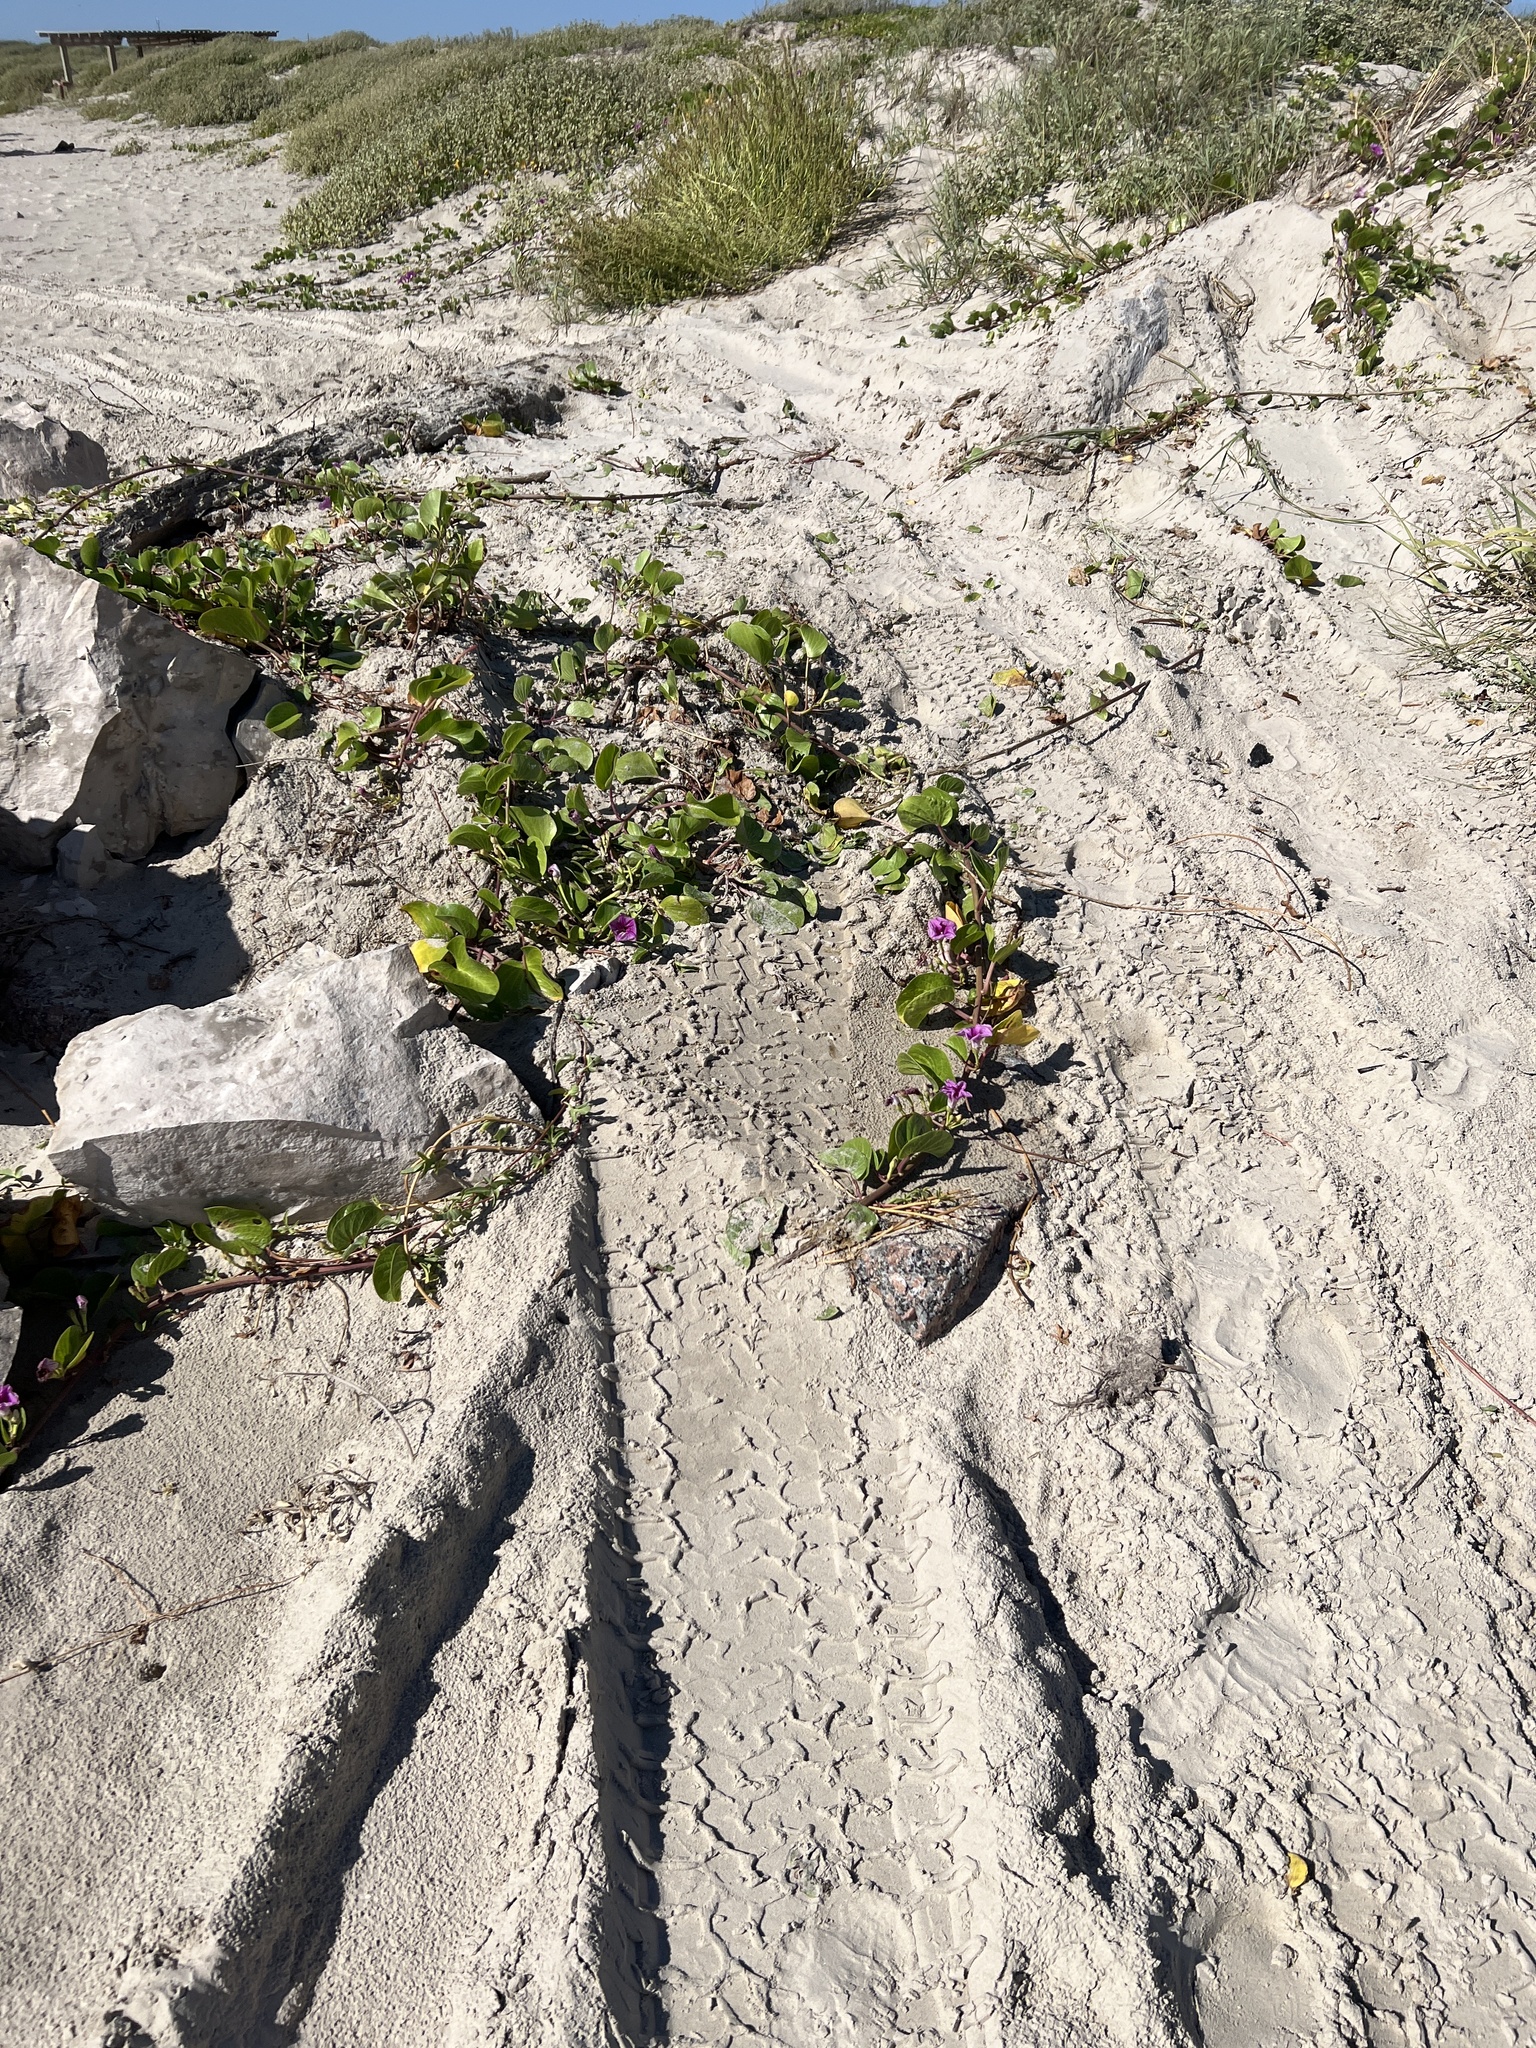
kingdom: Plantae
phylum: Tracheophyta
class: Magnoliopsida
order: Solanales
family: Convolvulaceae
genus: Ipomoea
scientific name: Ipomoea pes-caprae
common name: Beach morning glory
